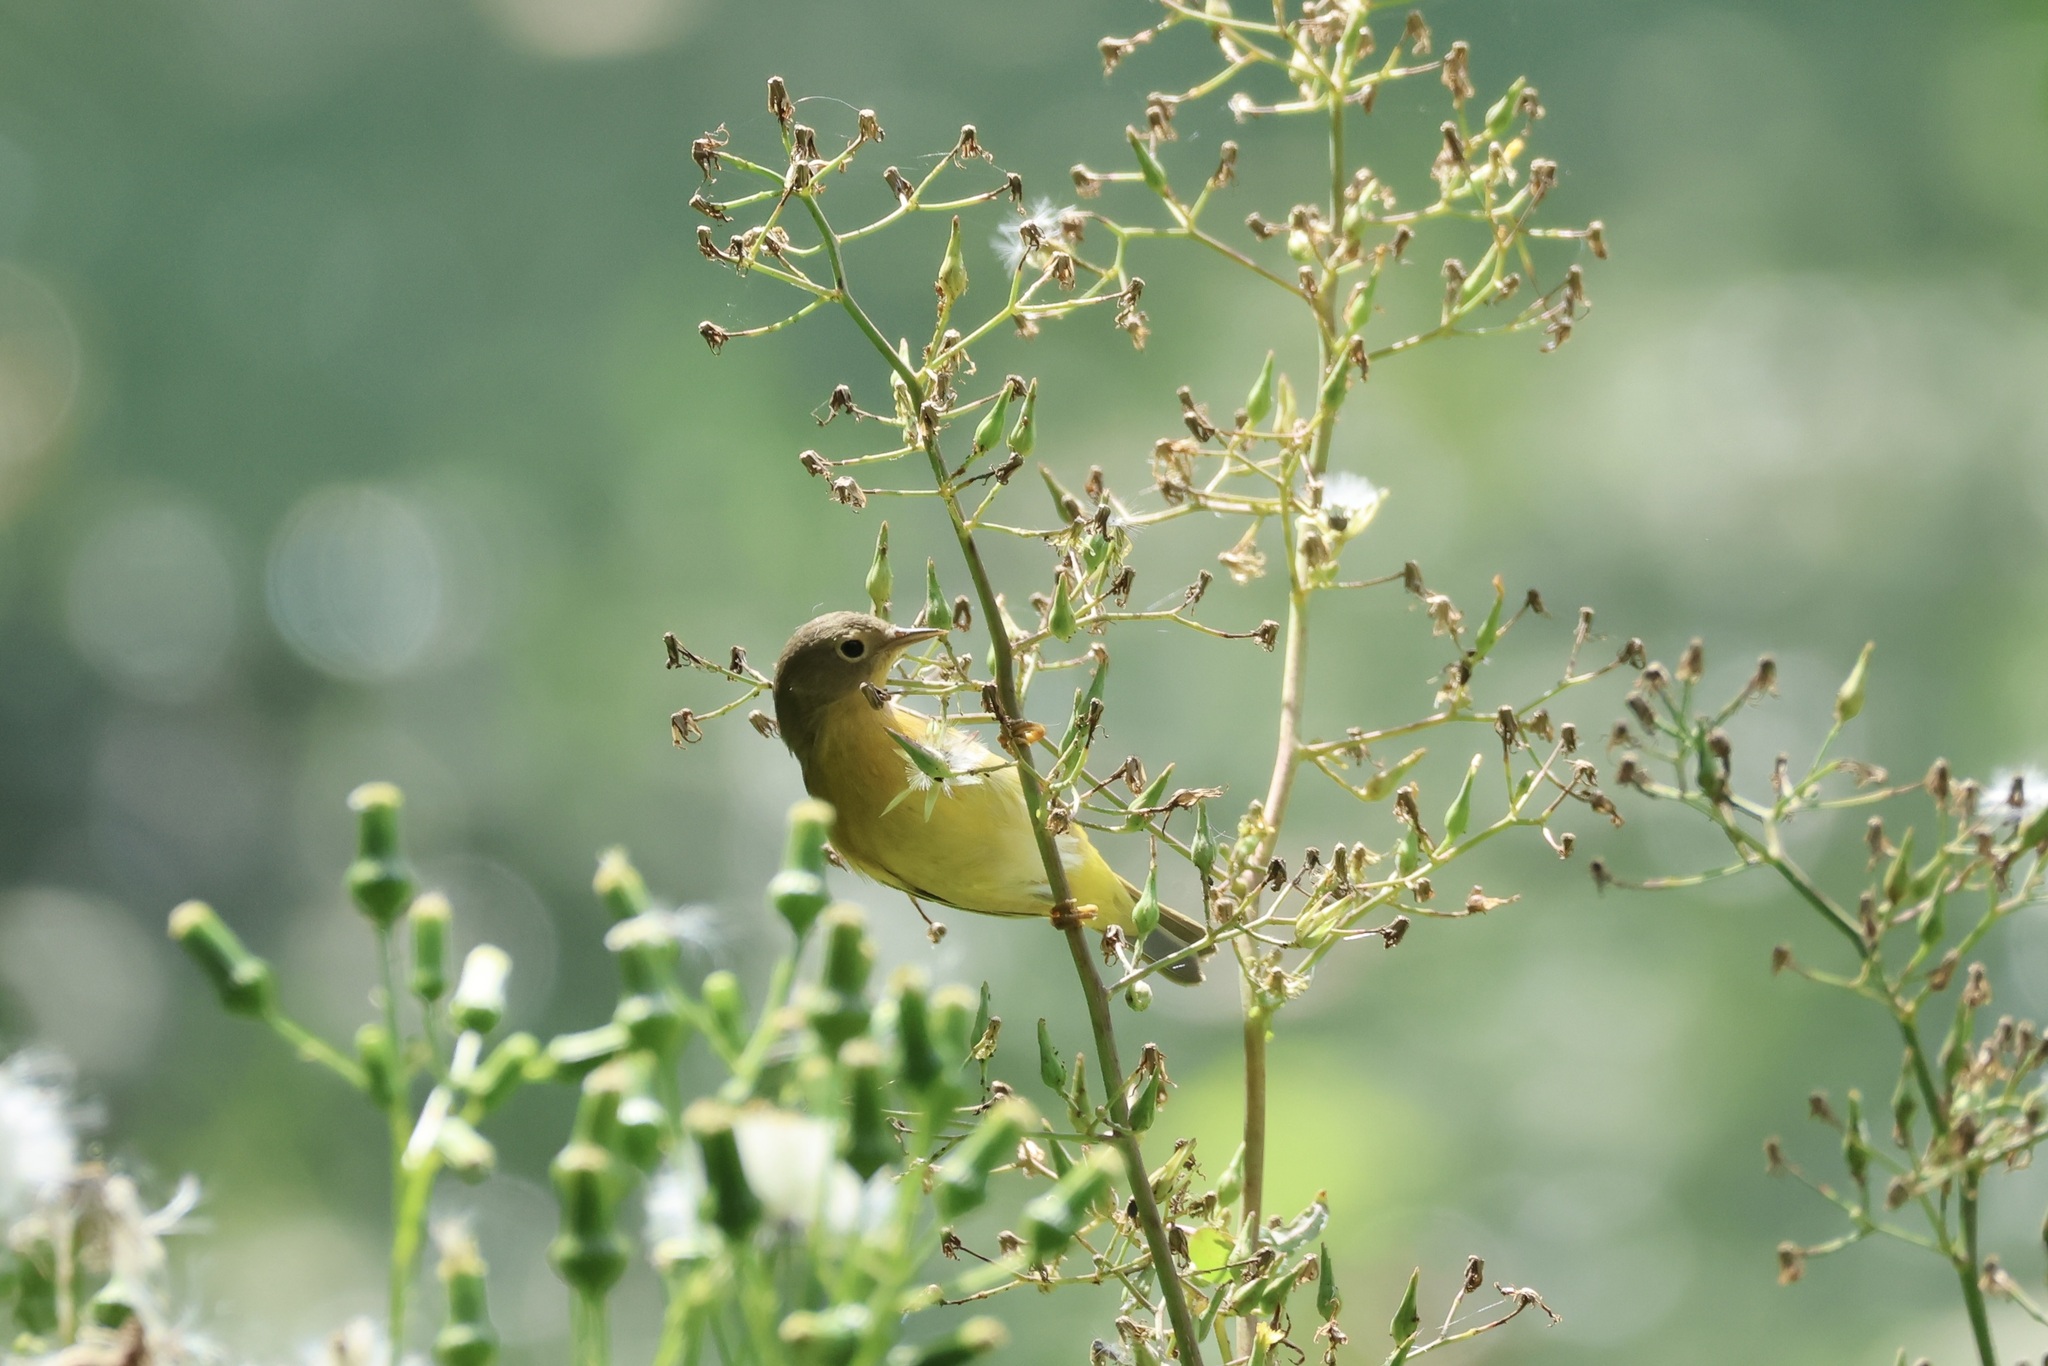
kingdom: Animalia
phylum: Chordata
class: Aves
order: Passeriformes
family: Parulidae
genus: Leiothlypis
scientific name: Leiothlypis ruficapilla
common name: Nashville warbler
